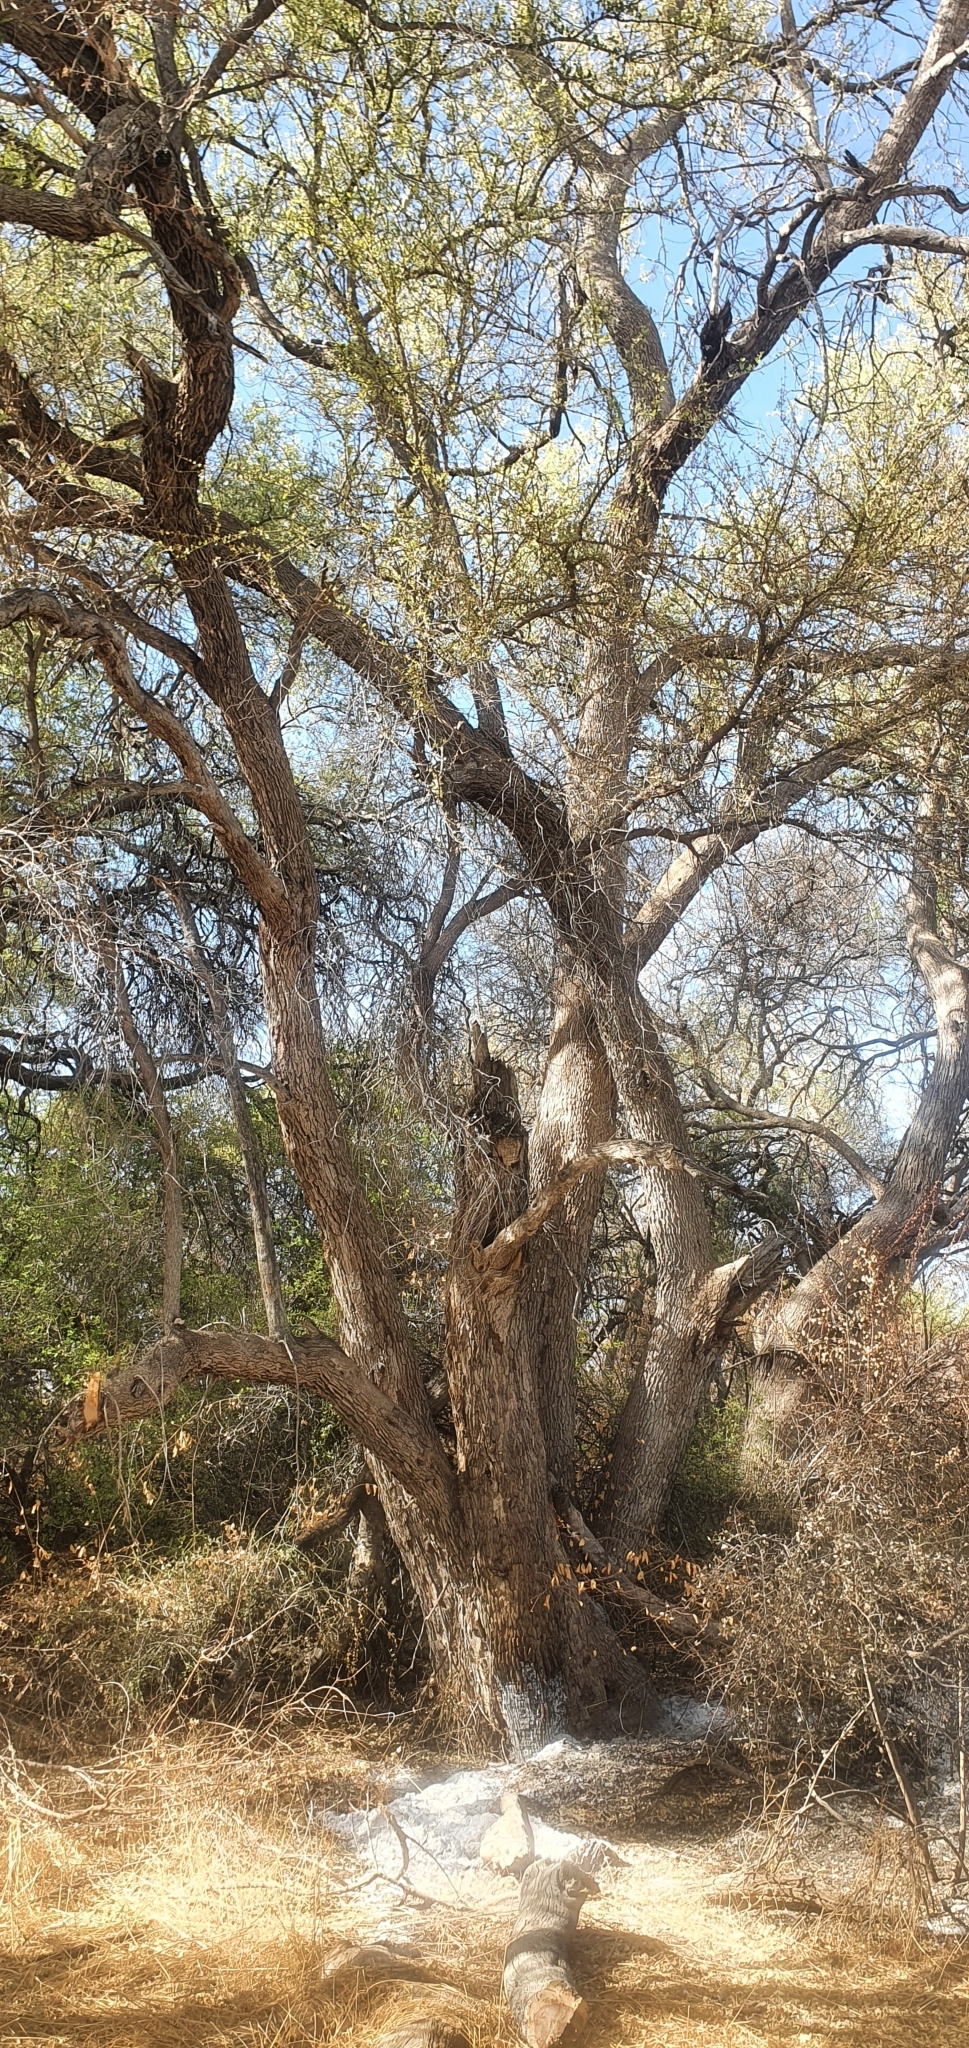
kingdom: Plantae
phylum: Tracheophyta
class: Magnoliopsida
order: Myrtales
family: Combretaceae
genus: Combretum
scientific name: Combretum imberbe
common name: Leadwood
